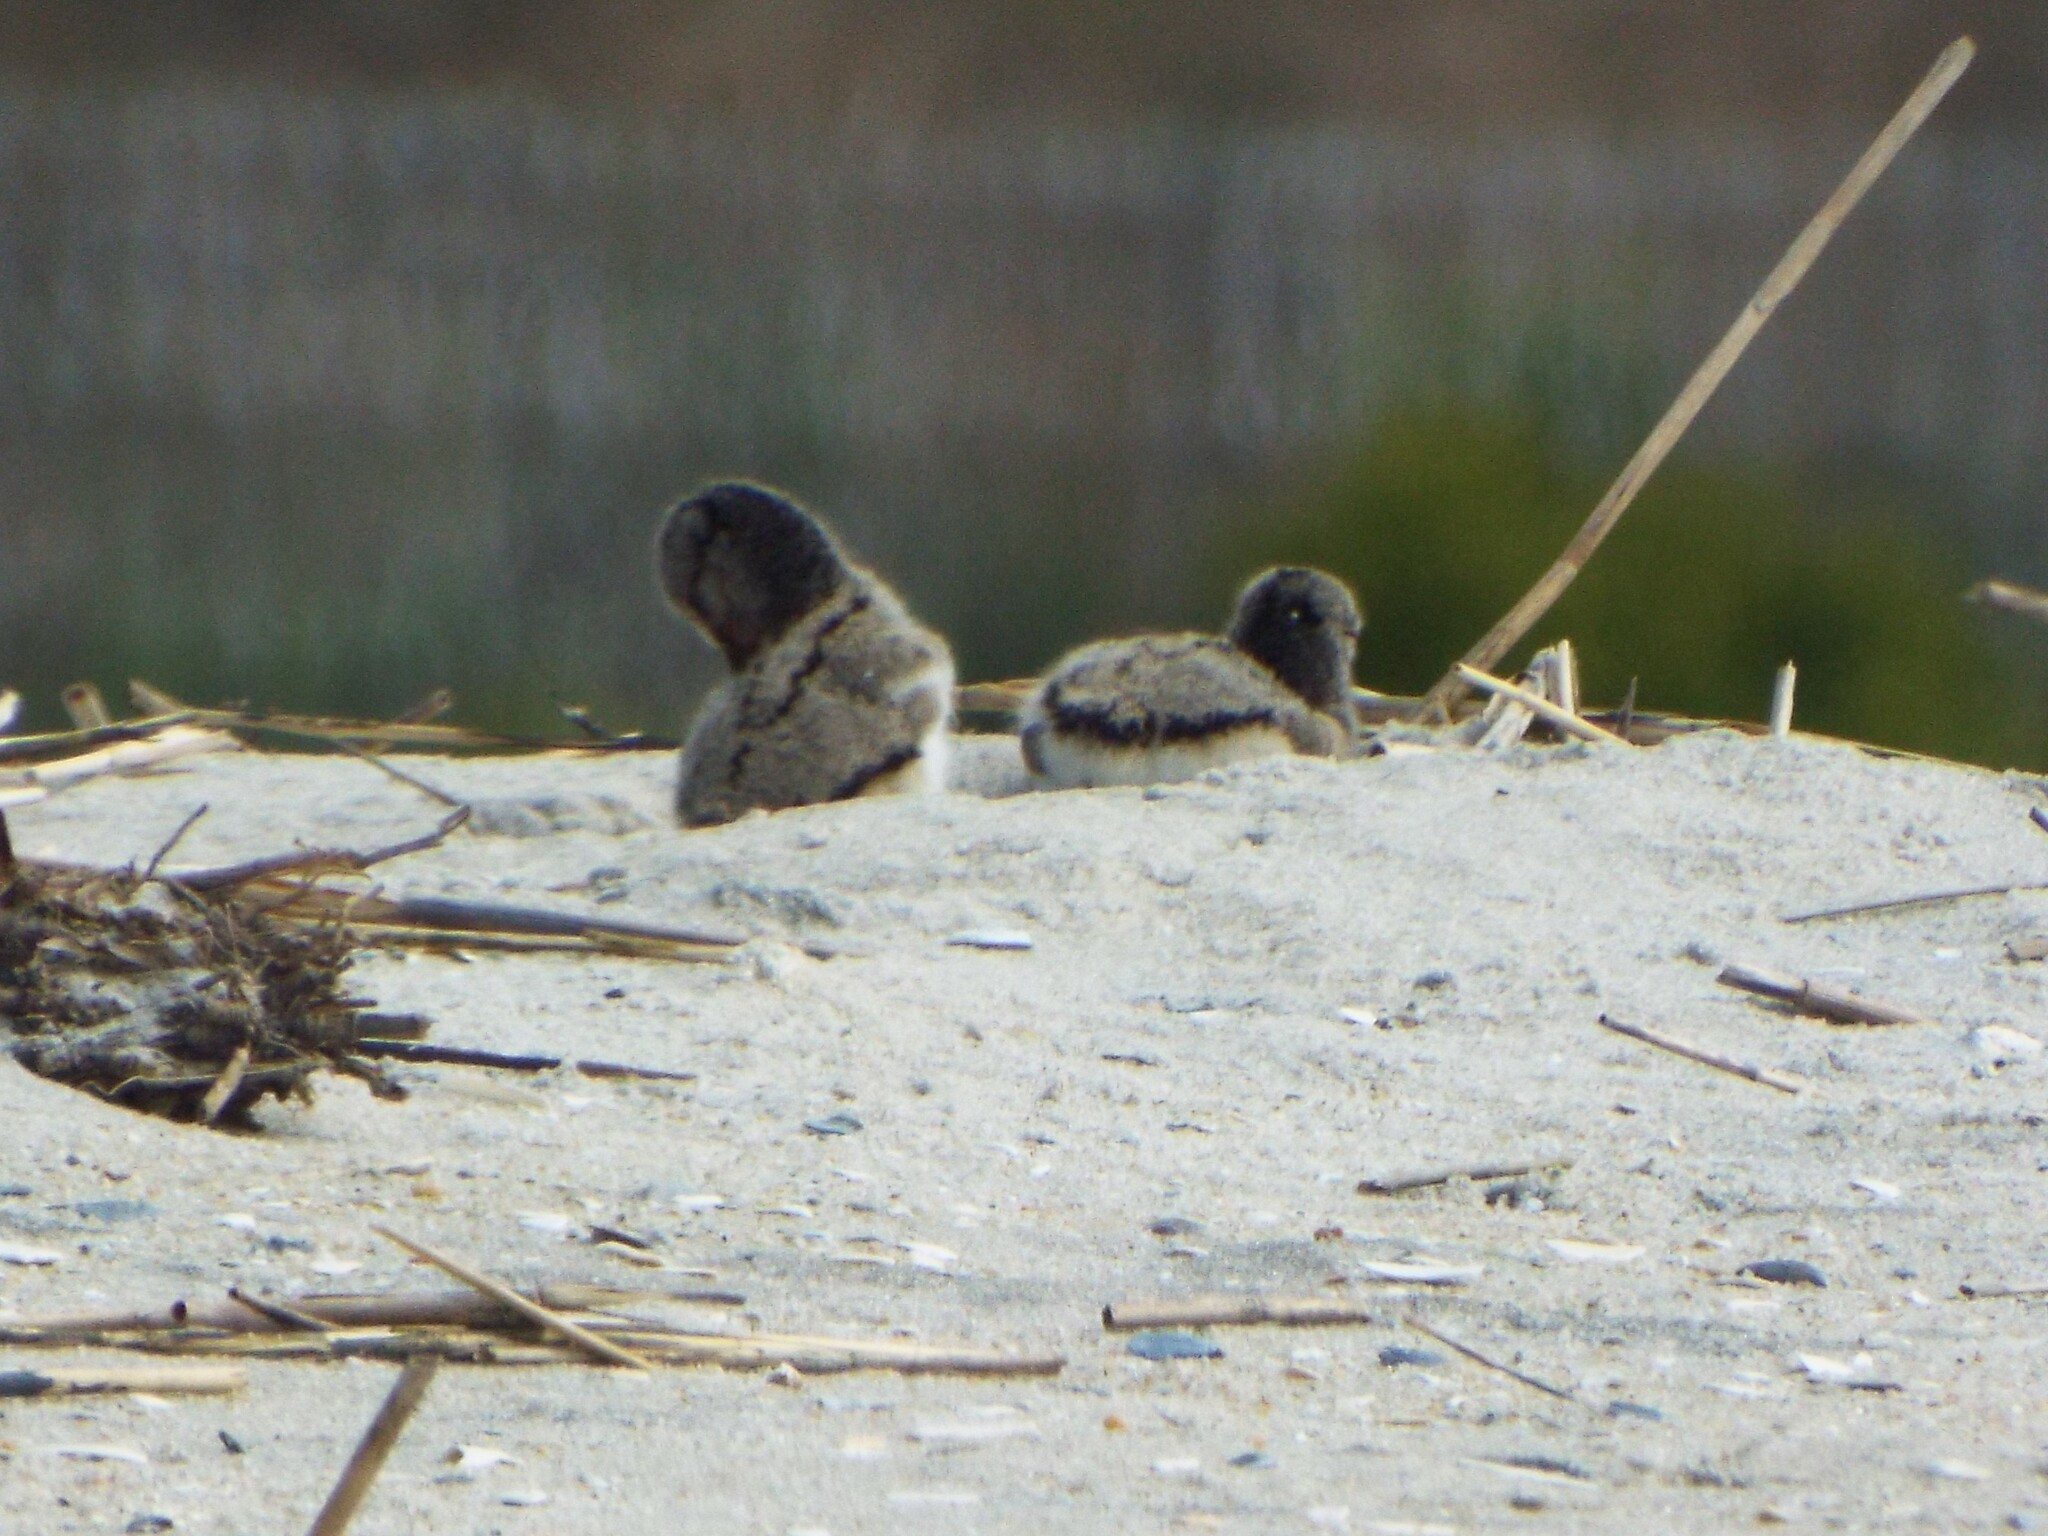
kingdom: Animalia
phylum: Chordata
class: Aves
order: Charadriiformes
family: Haematopodidae
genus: Haematopus
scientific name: Haematopus palliatus
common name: American oystercatcher
